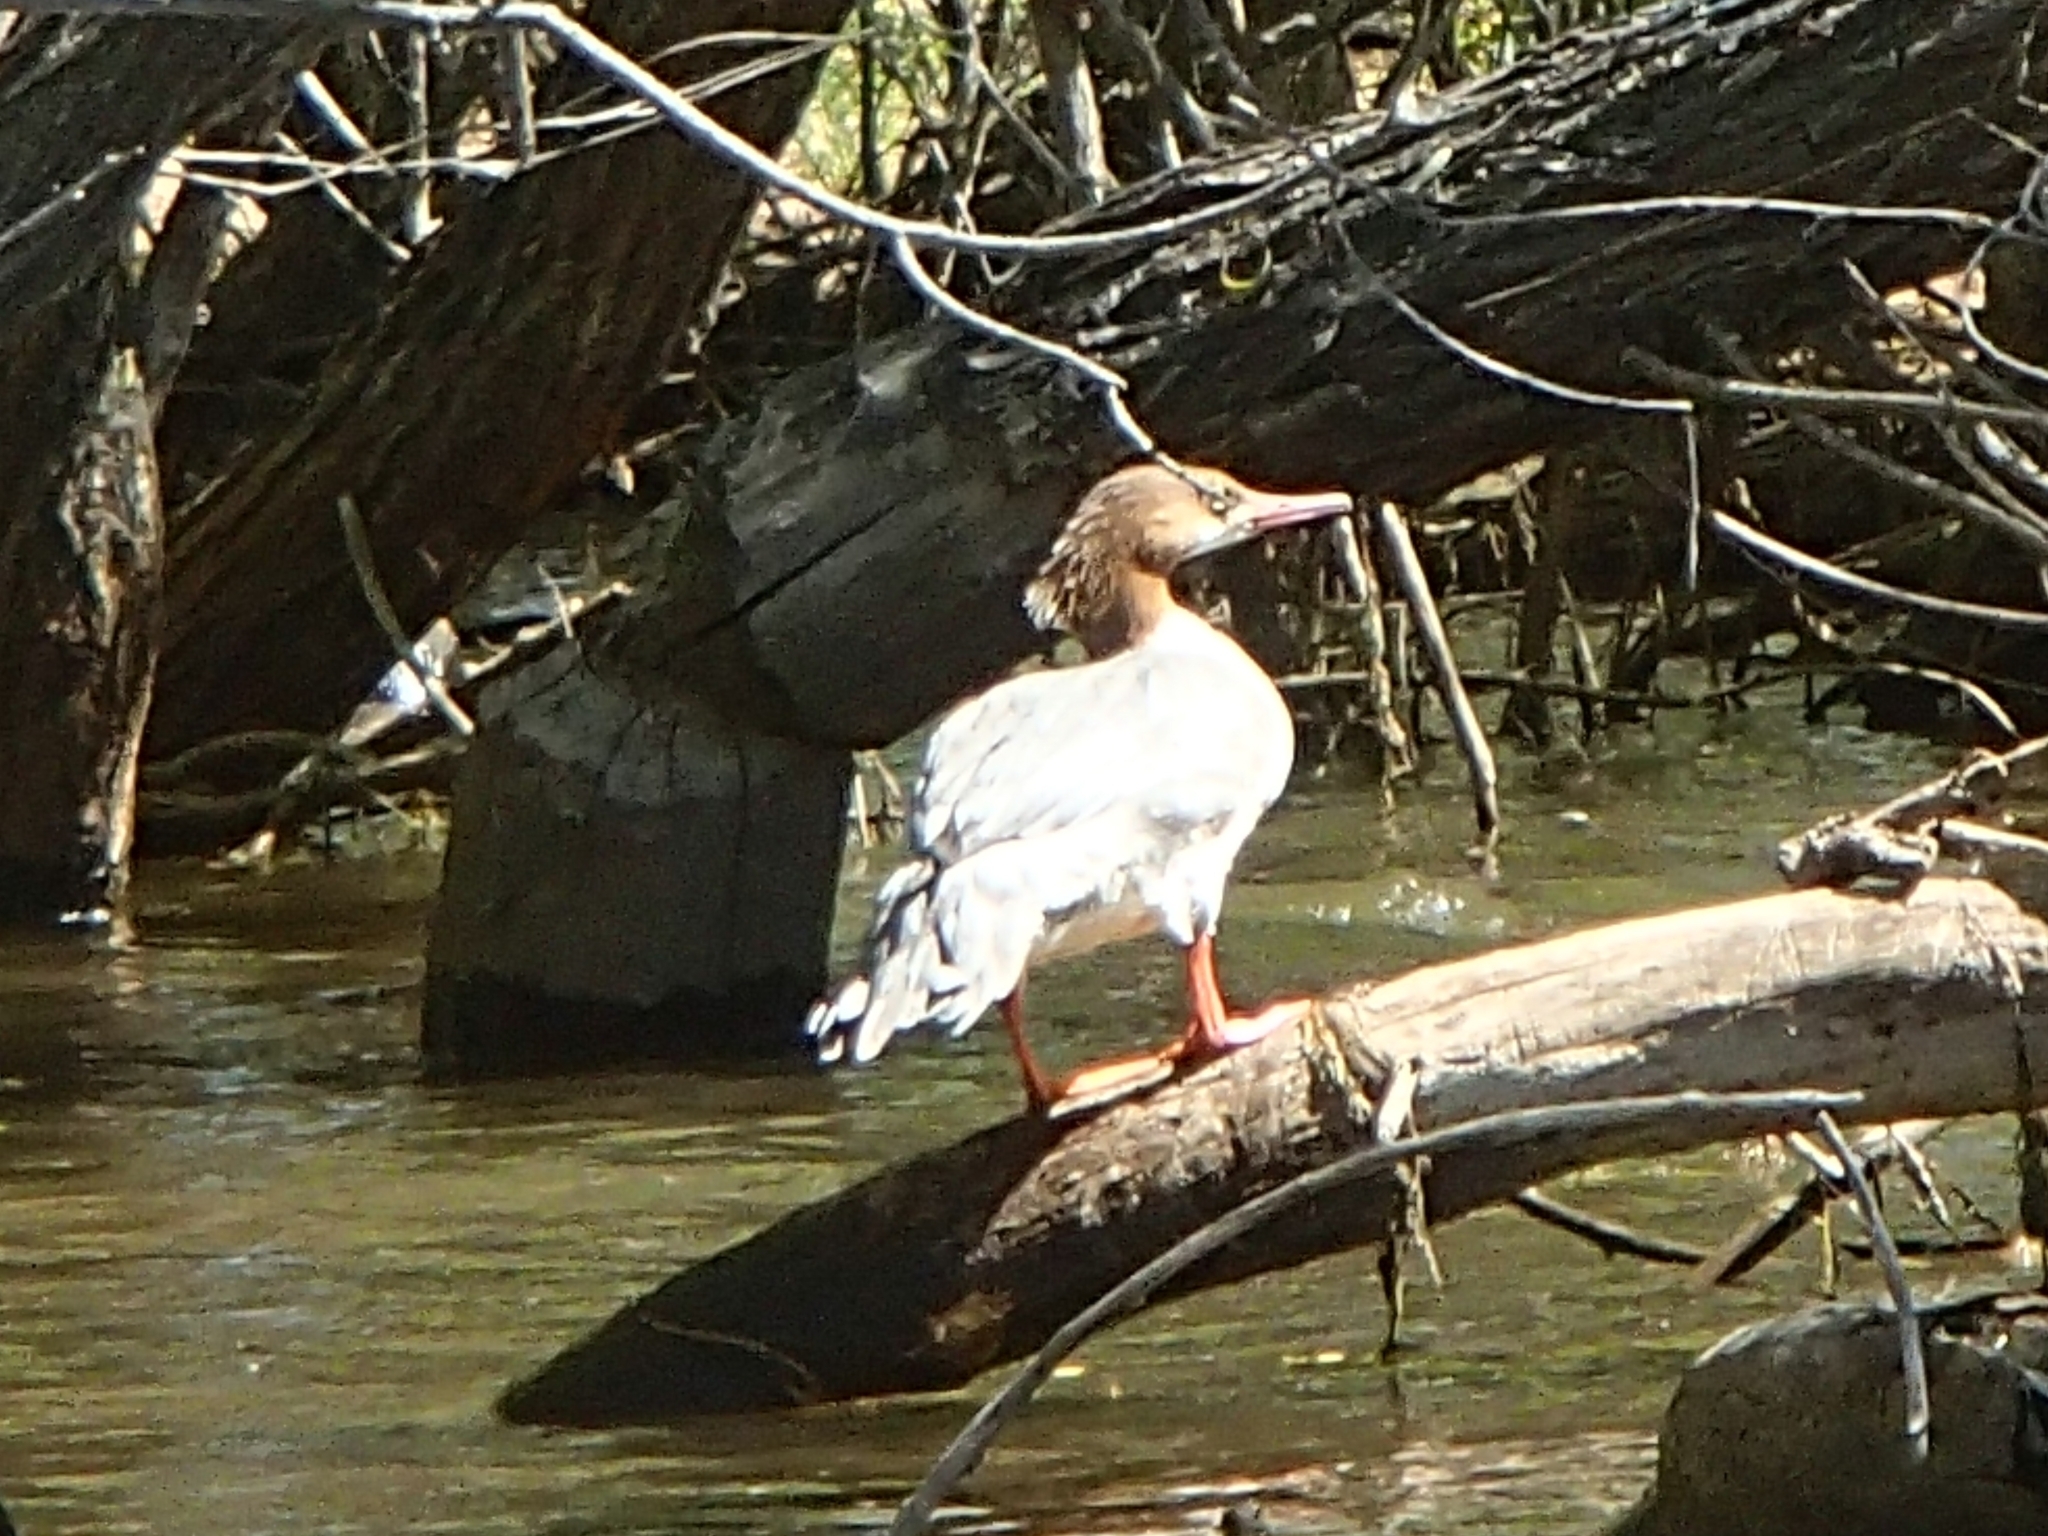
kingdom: Animalia
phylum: Chordata
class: Aves
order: Anseriformes
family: Anatidae
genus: Mergus
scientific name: Mergus merganser
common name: Common merganser
